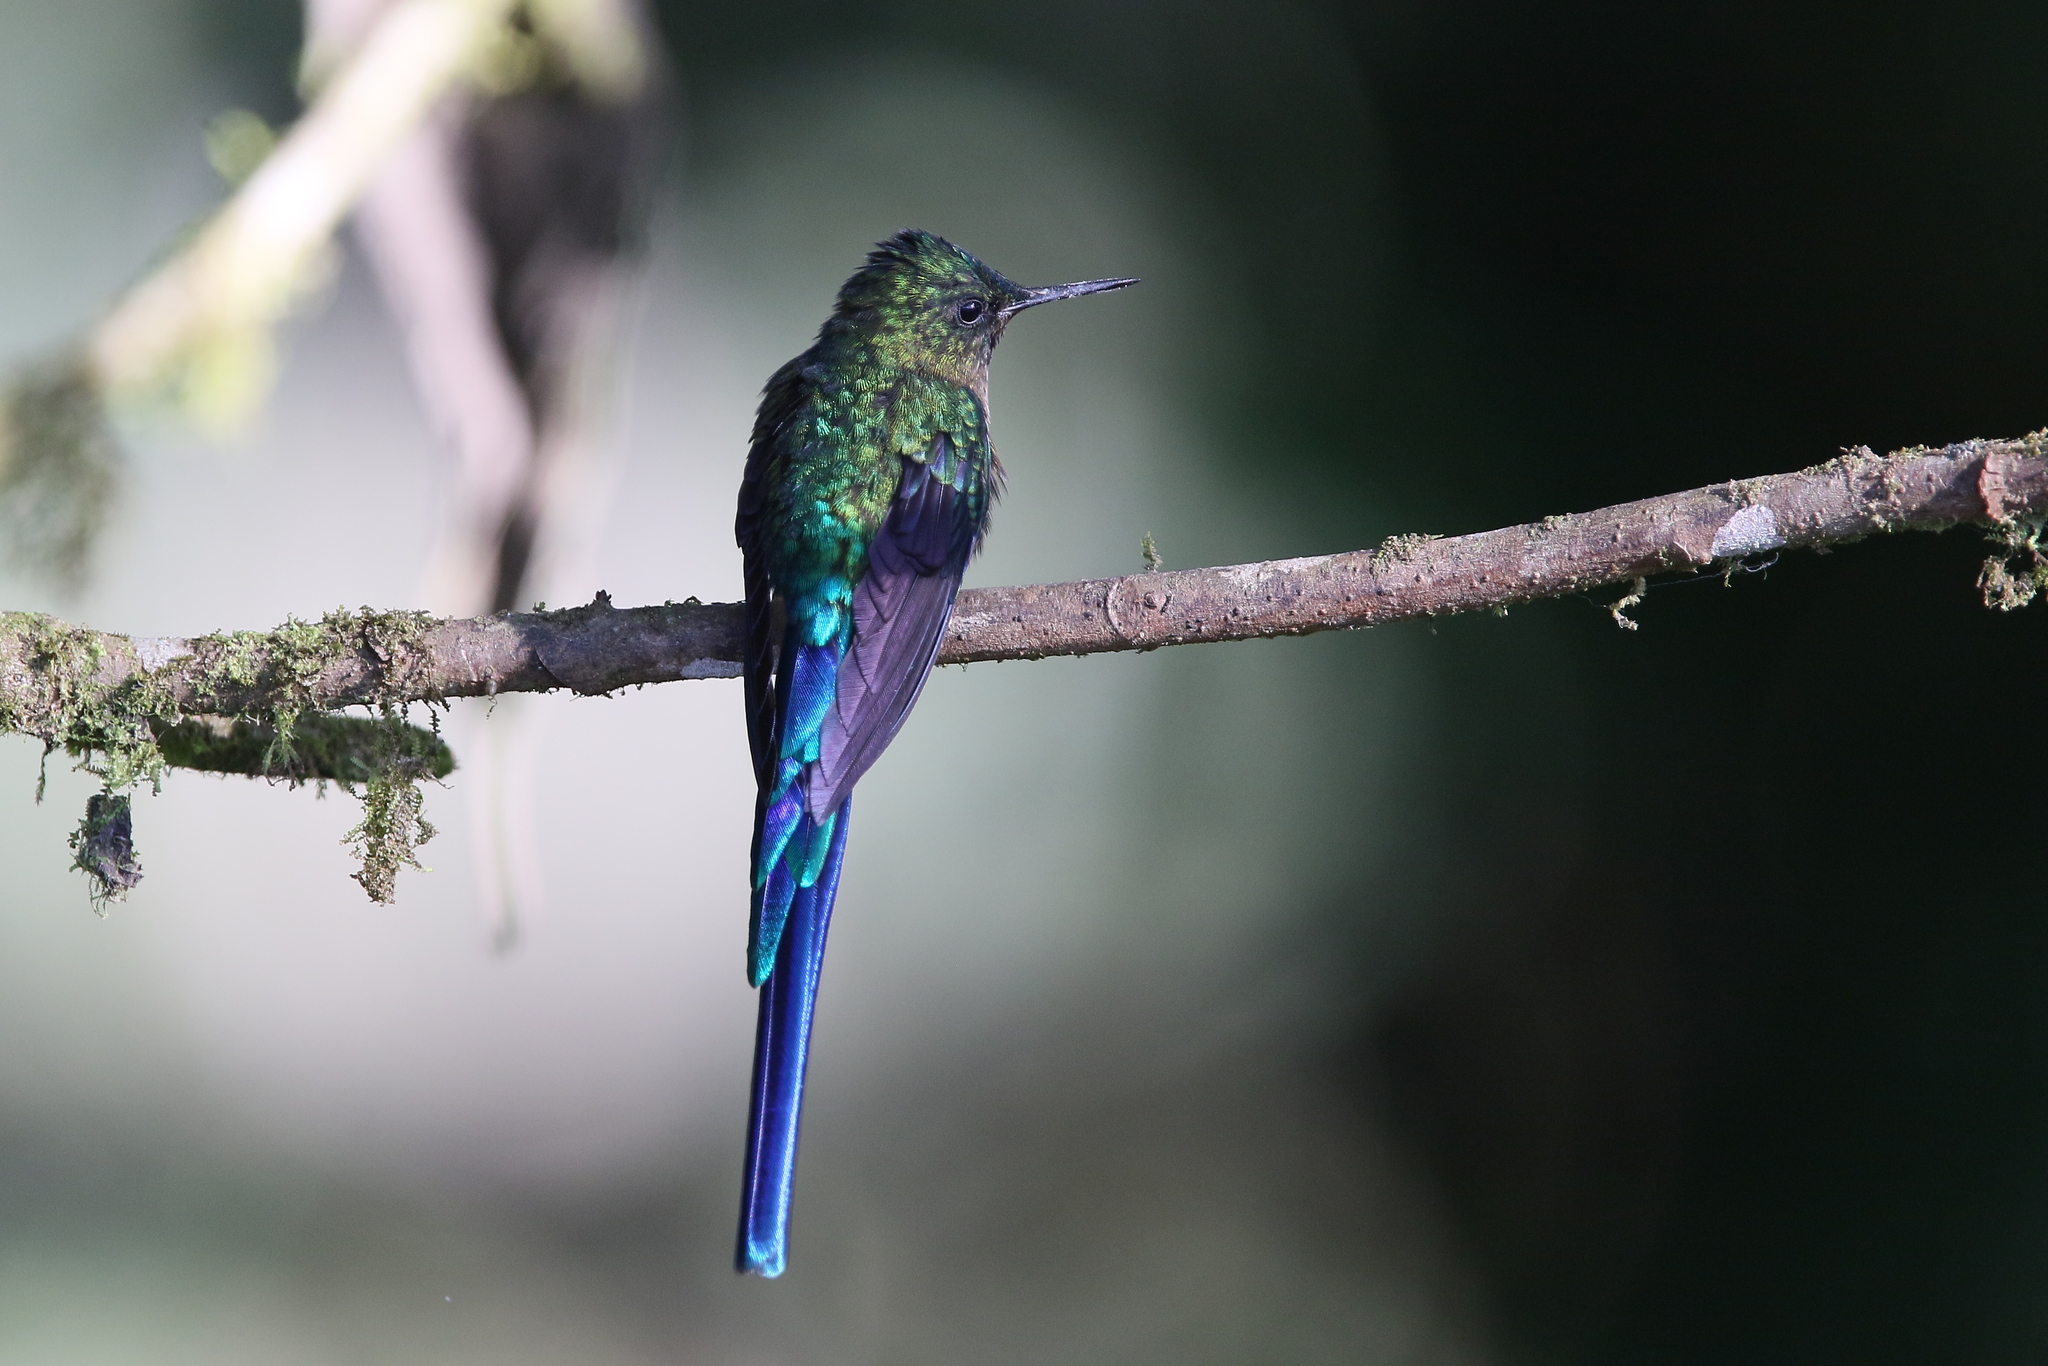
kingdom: Animalia
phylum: Chordata
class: Aves
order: Apodiformes
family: Trochilidae
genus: Aglaiocercus
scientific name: Aglaiocercus coelestis
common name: Violet-tailed sylph
